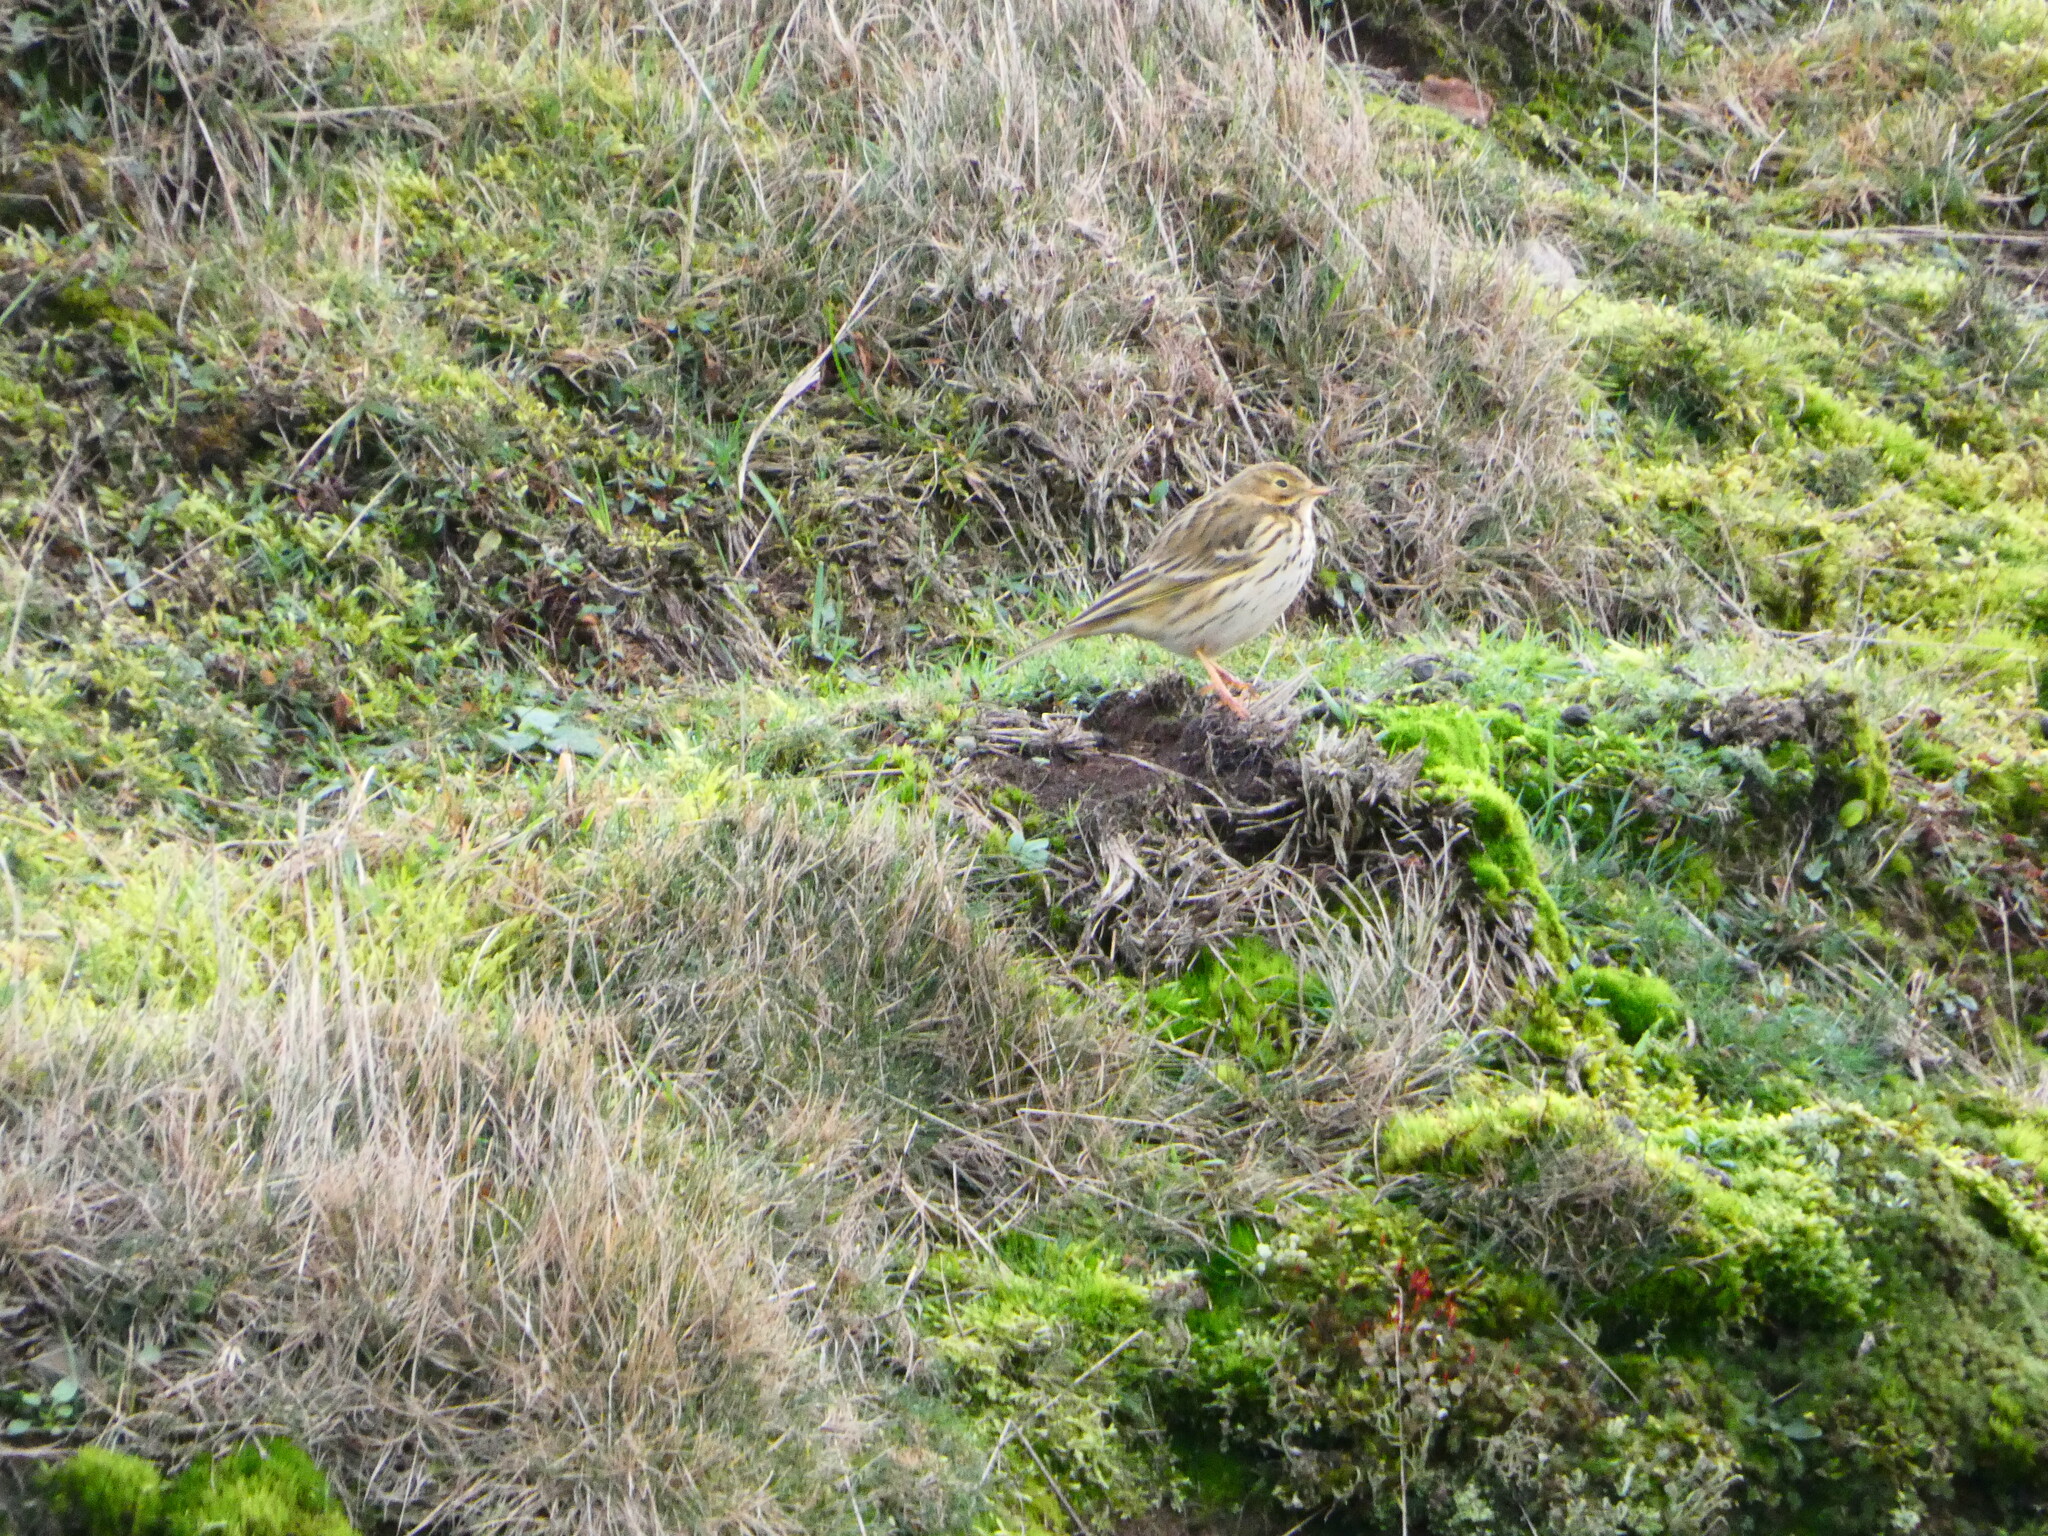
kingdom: Animalia
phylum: Chordata
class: Aves
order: Passeriformes
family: Motacillidae
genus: Anthus
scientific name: Anthus pratensis
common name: Meadow pipit
